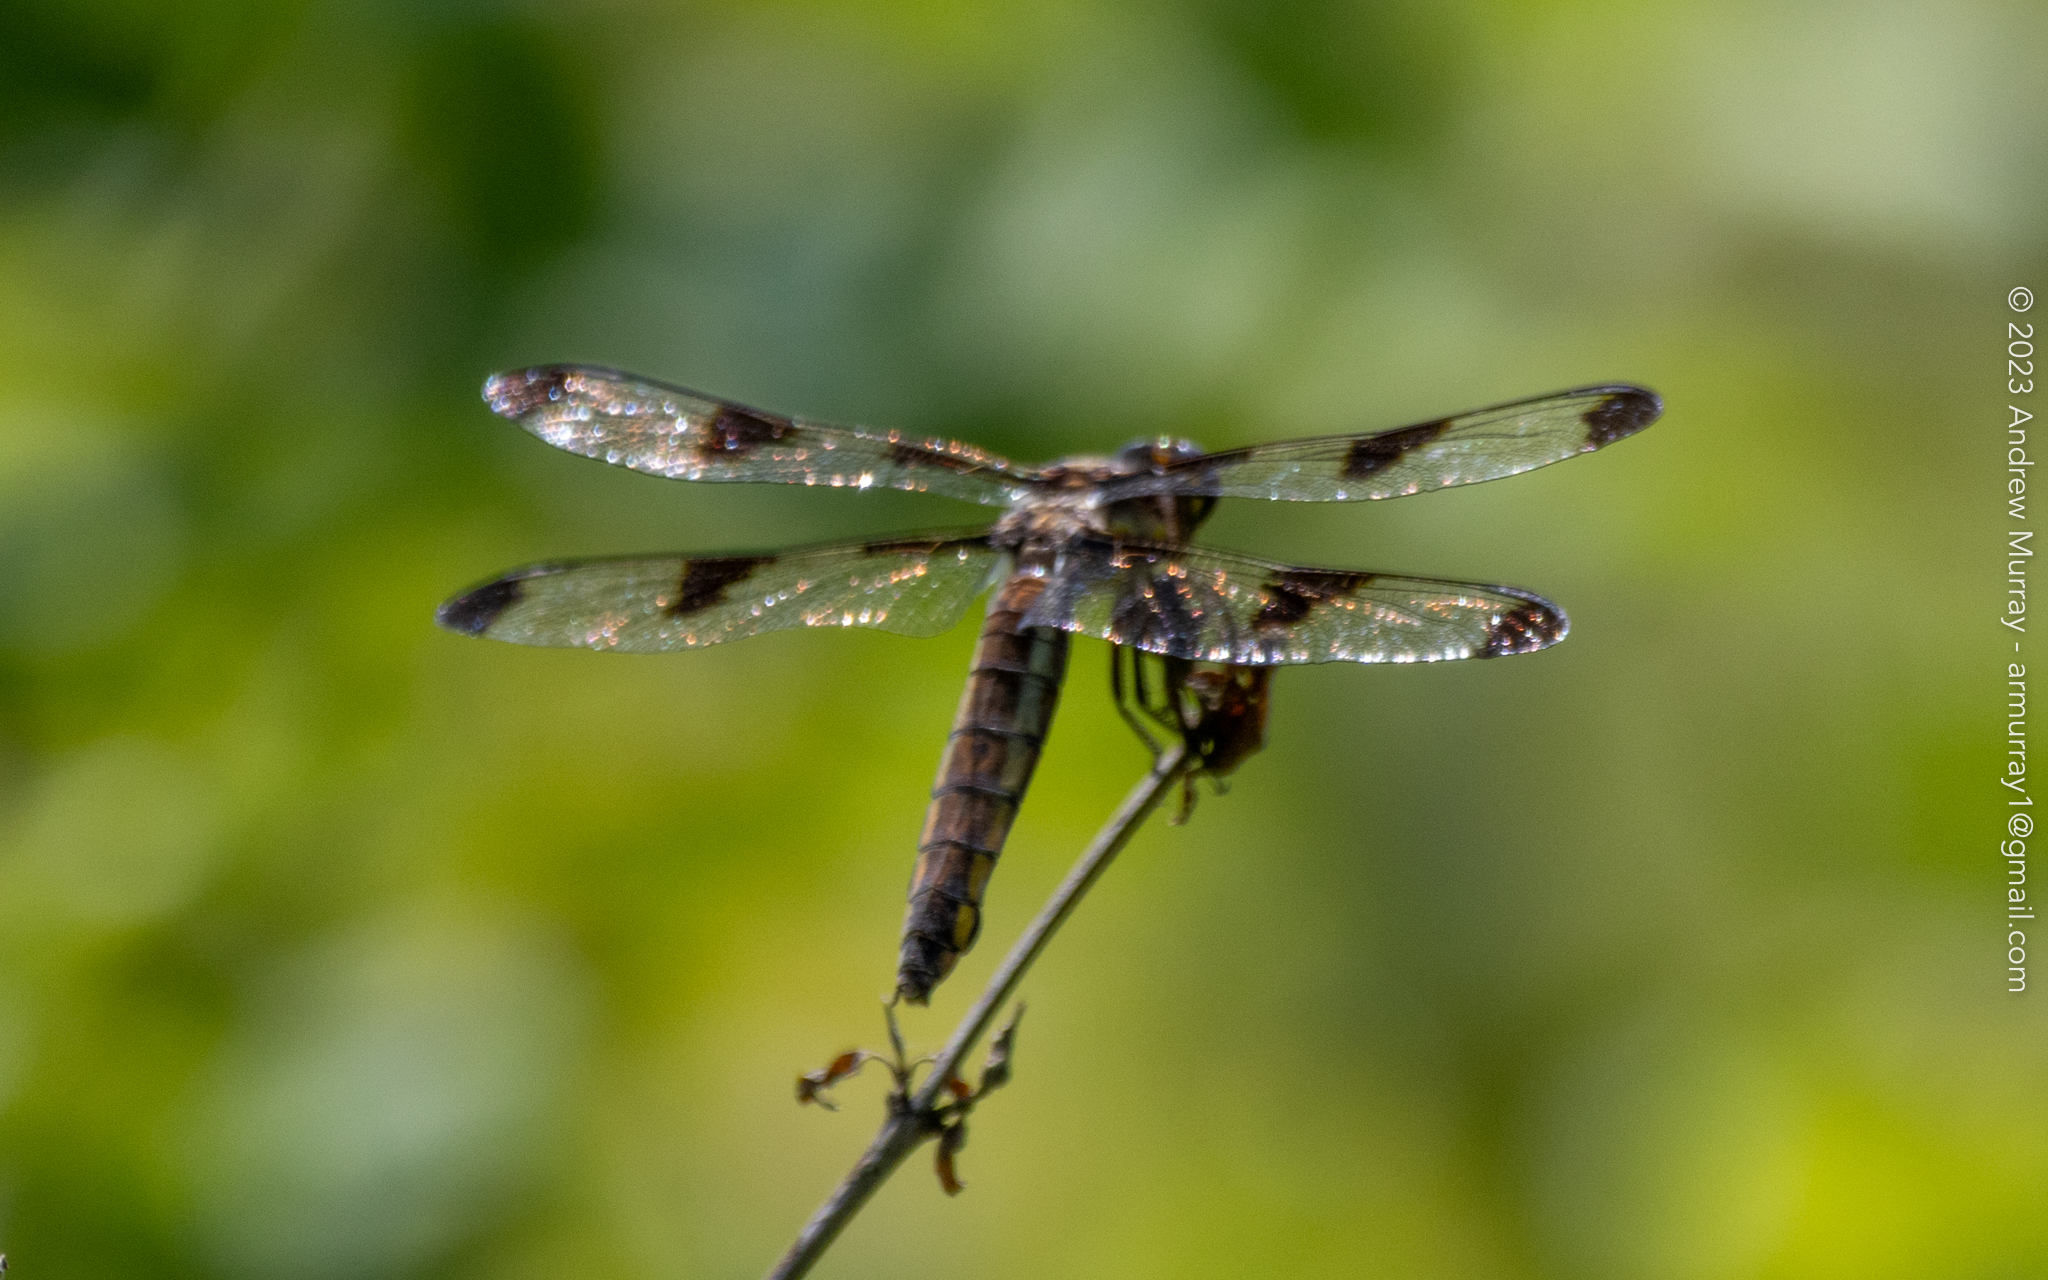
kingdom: Animalia
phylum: Arthropoda
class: Insecta
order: Odonata
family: Libellulidae
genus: Libellula
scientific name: Libellula pulchella
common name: Twelve-spotted skimmer
